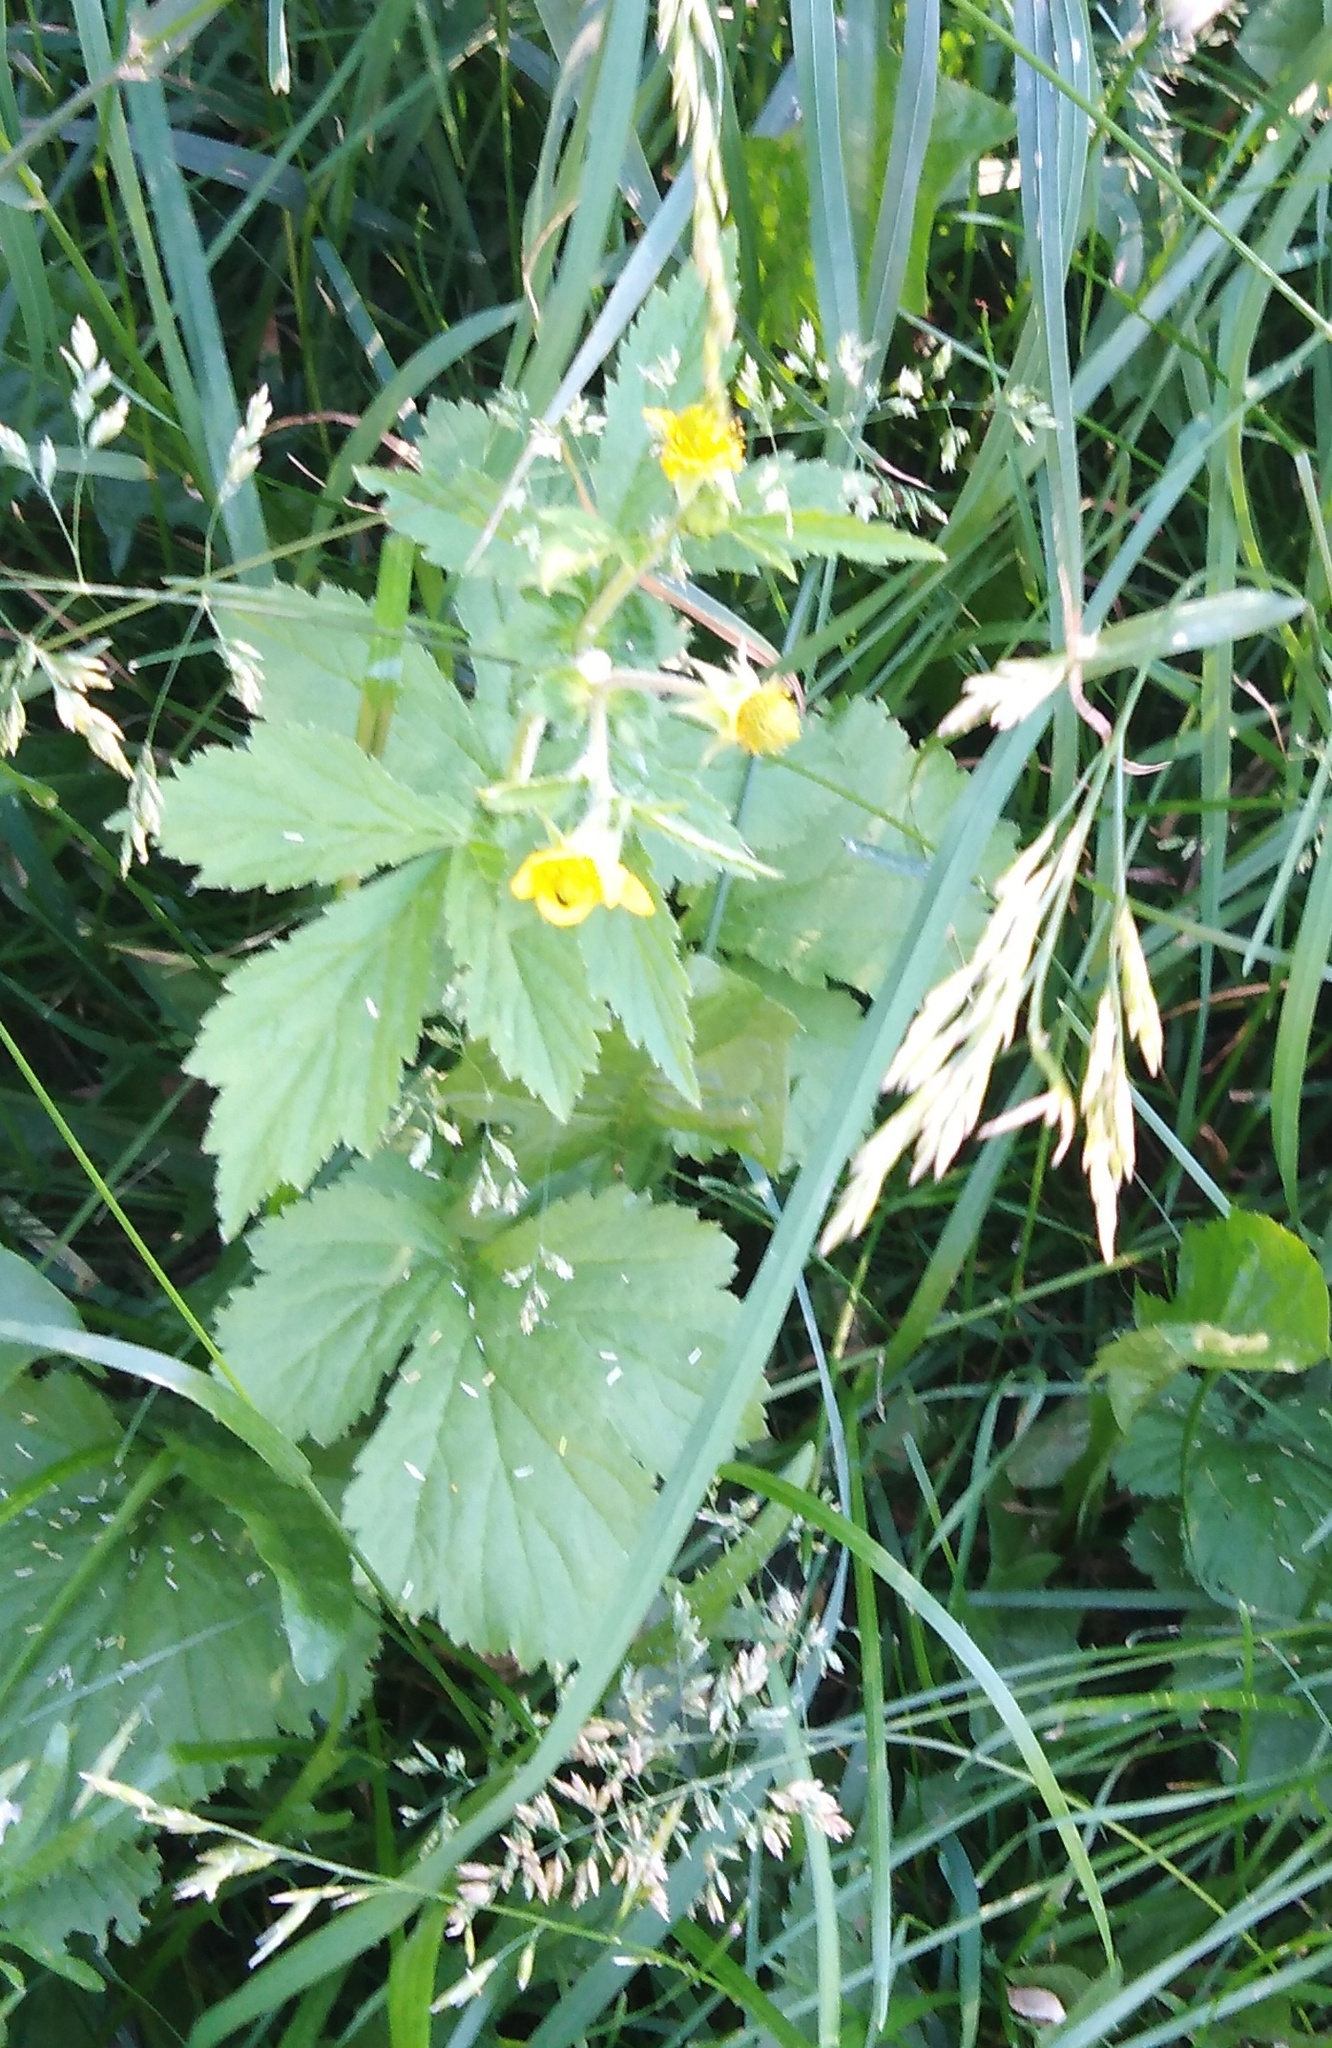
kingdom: Plantae
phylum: Tracheophyta
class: Magnoliopsida
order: Rosales
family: Rosaceae
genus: Geum
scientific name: Geum aleppicum
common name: Yellow avens
